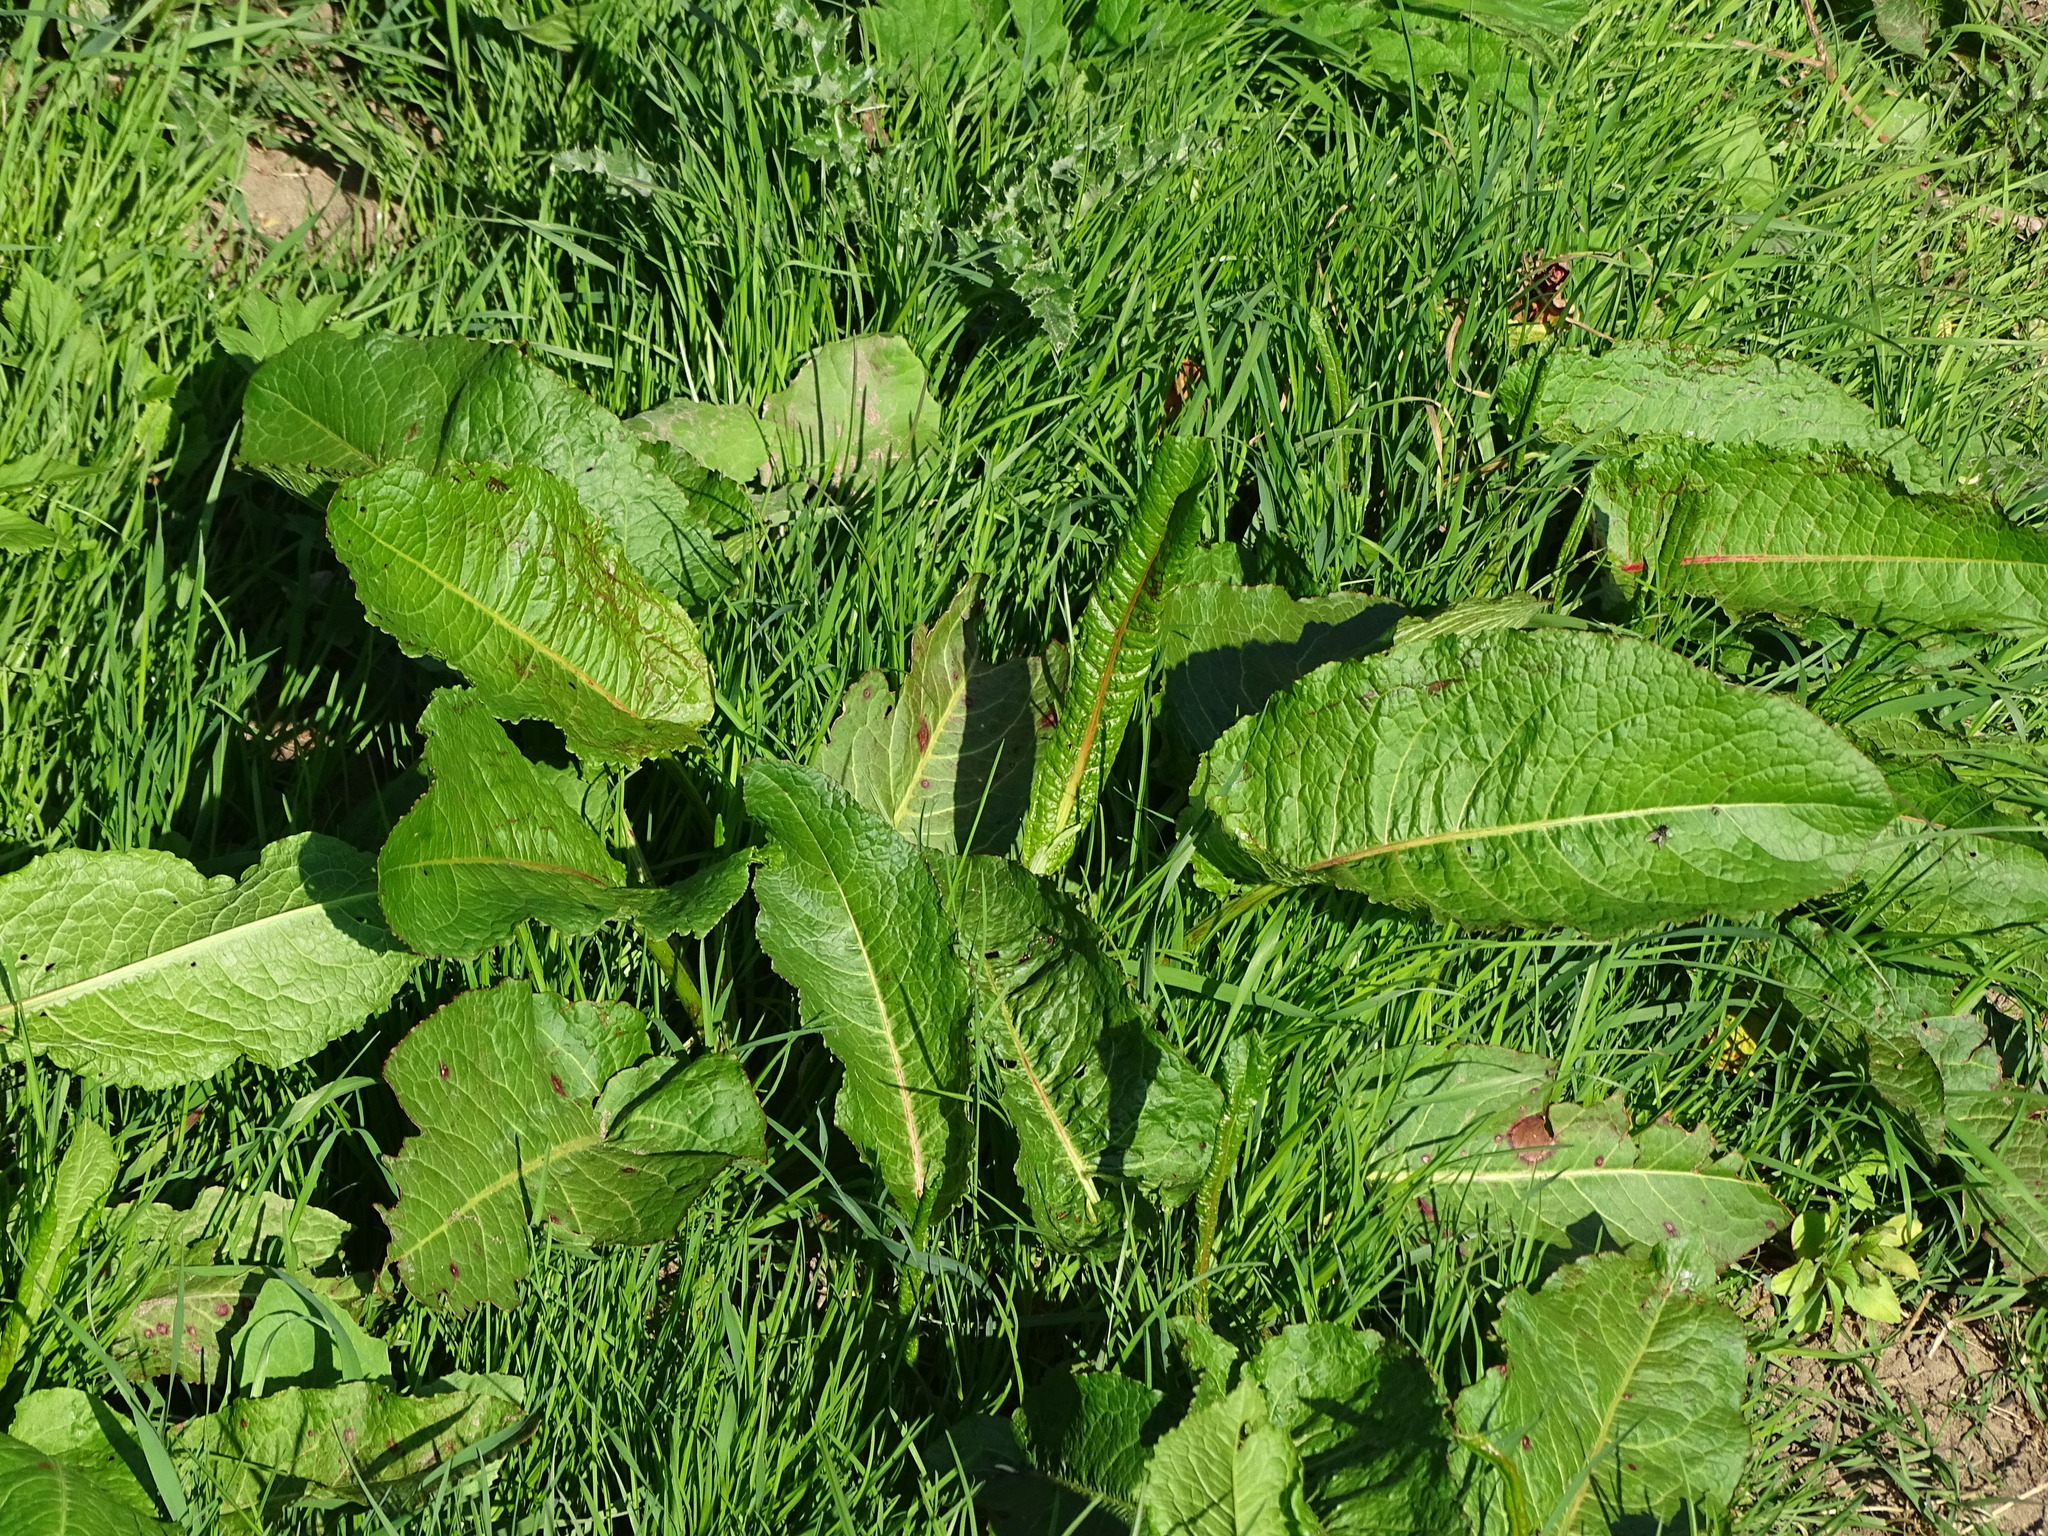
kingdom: Plantae
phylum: Tracheophyta
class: Magnoliopsida
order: Caryophyllales
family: Polygonaceae
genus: Rumex
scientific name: Rumex obtusifolius
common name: Bitter dock
